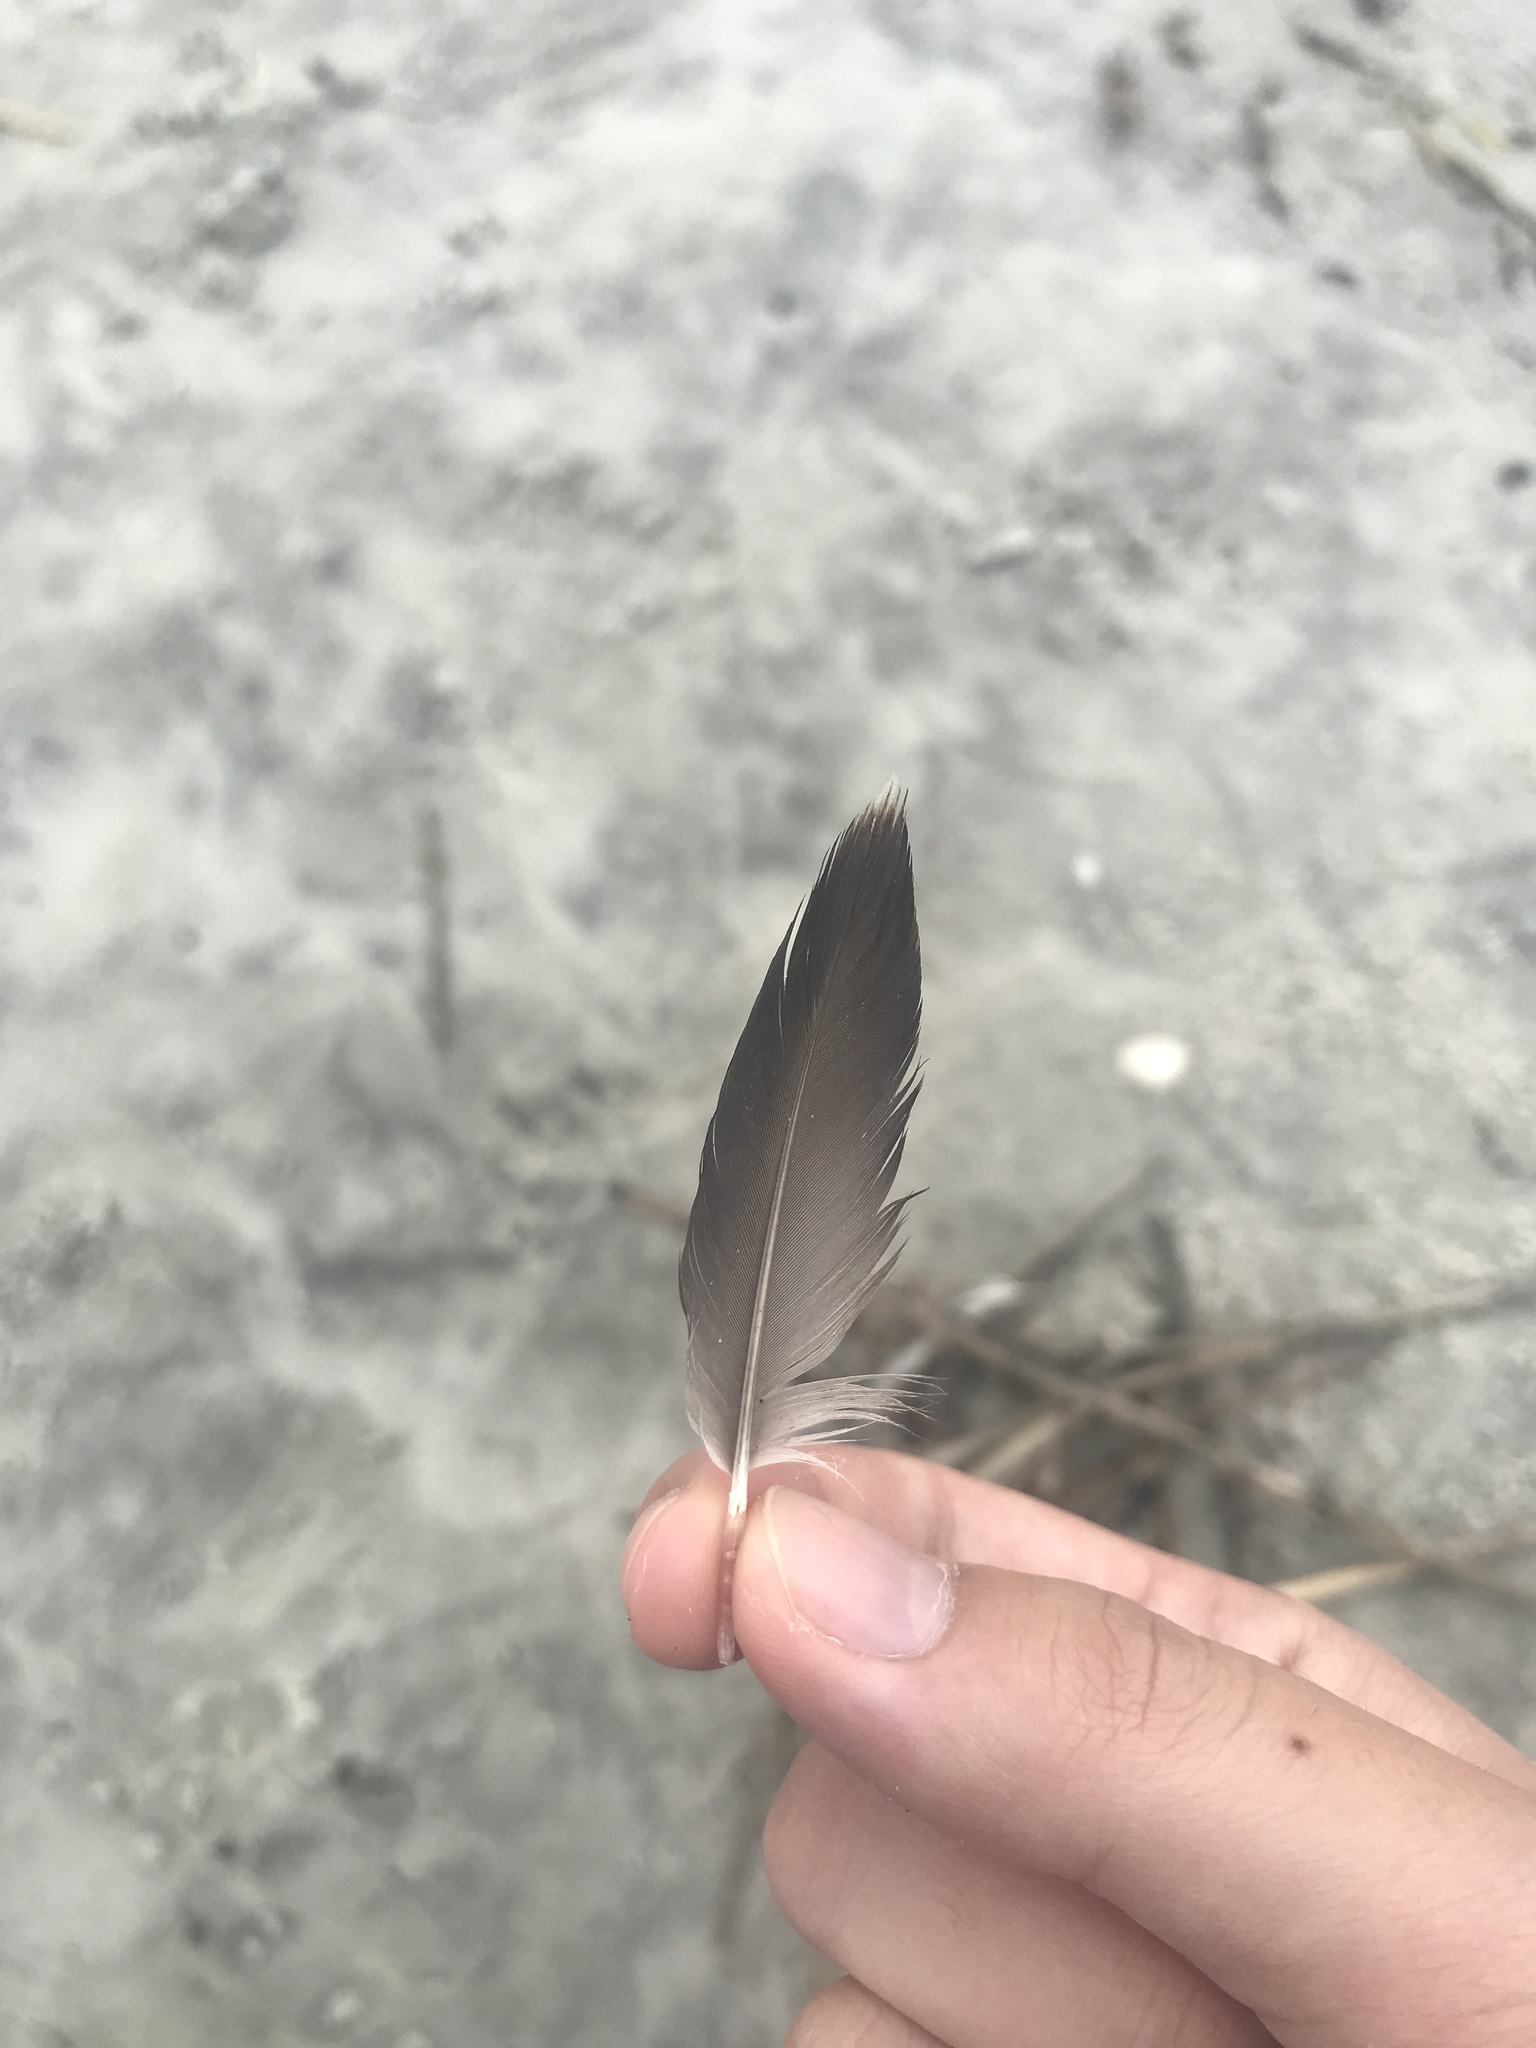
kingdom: Animalia
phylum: Chordata
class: Aves
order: Pelecaniformes
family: Pelecanidae
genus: Pelecanus
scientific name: Pelecanus occidentalis
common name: Brown pelican
